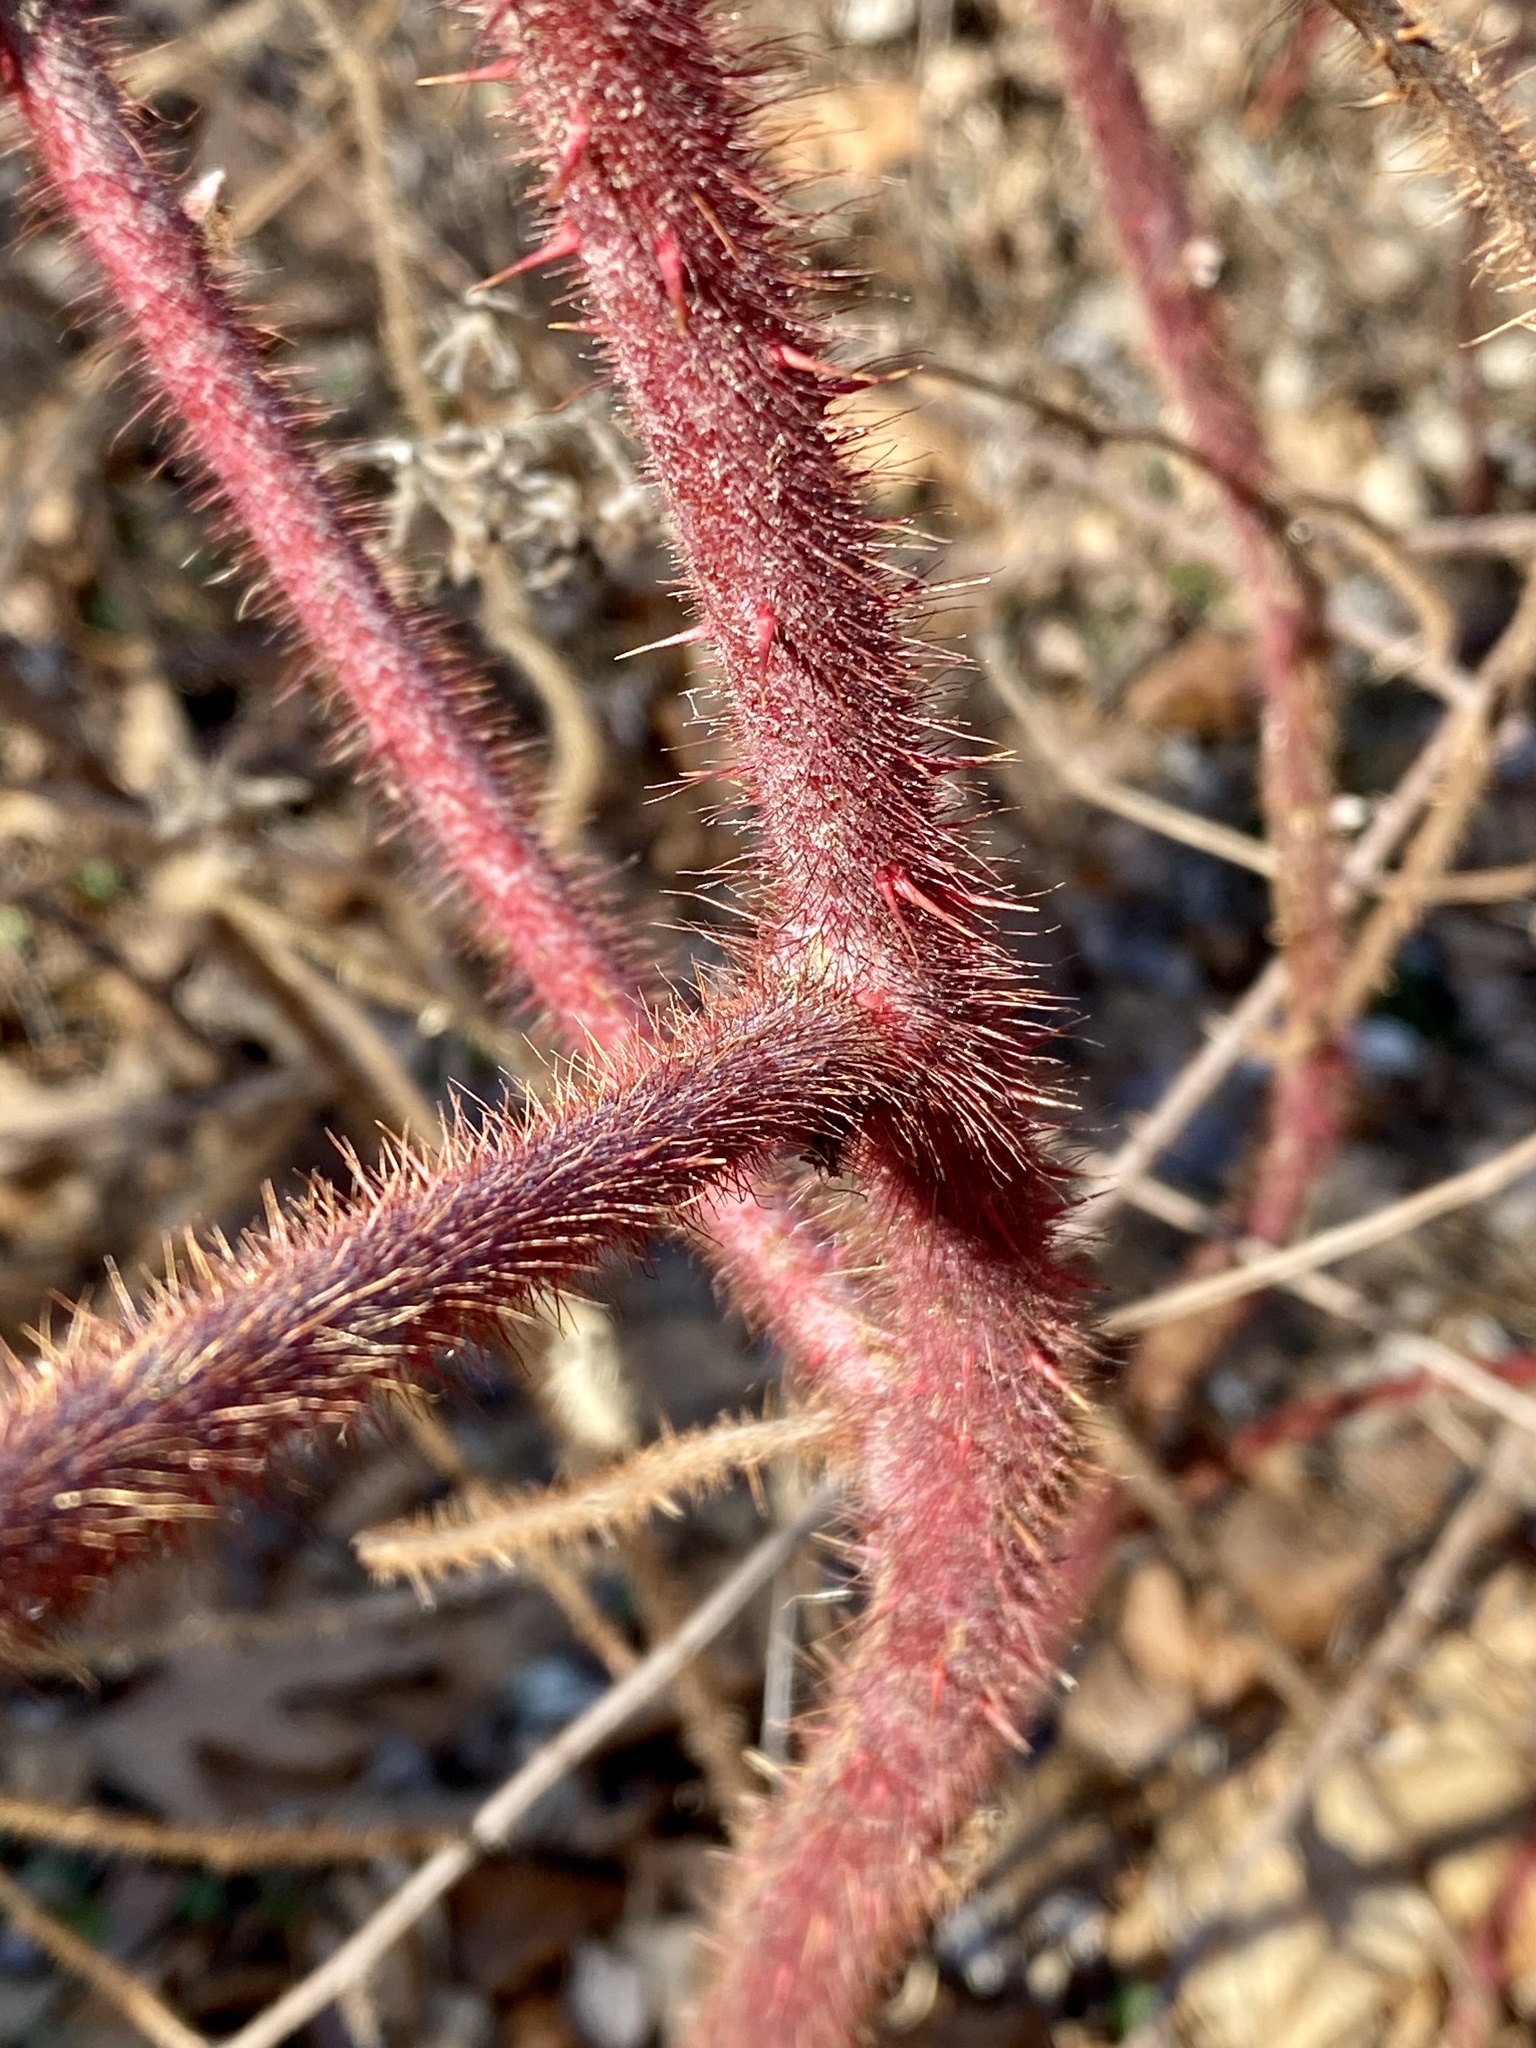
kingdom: Plantae
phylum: Tracheophyta
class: Magnoliopsida
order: Rosales
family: Rosaceae
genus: Rubus
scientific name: Rubus phoenicolasius
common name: Japanese wineberry
